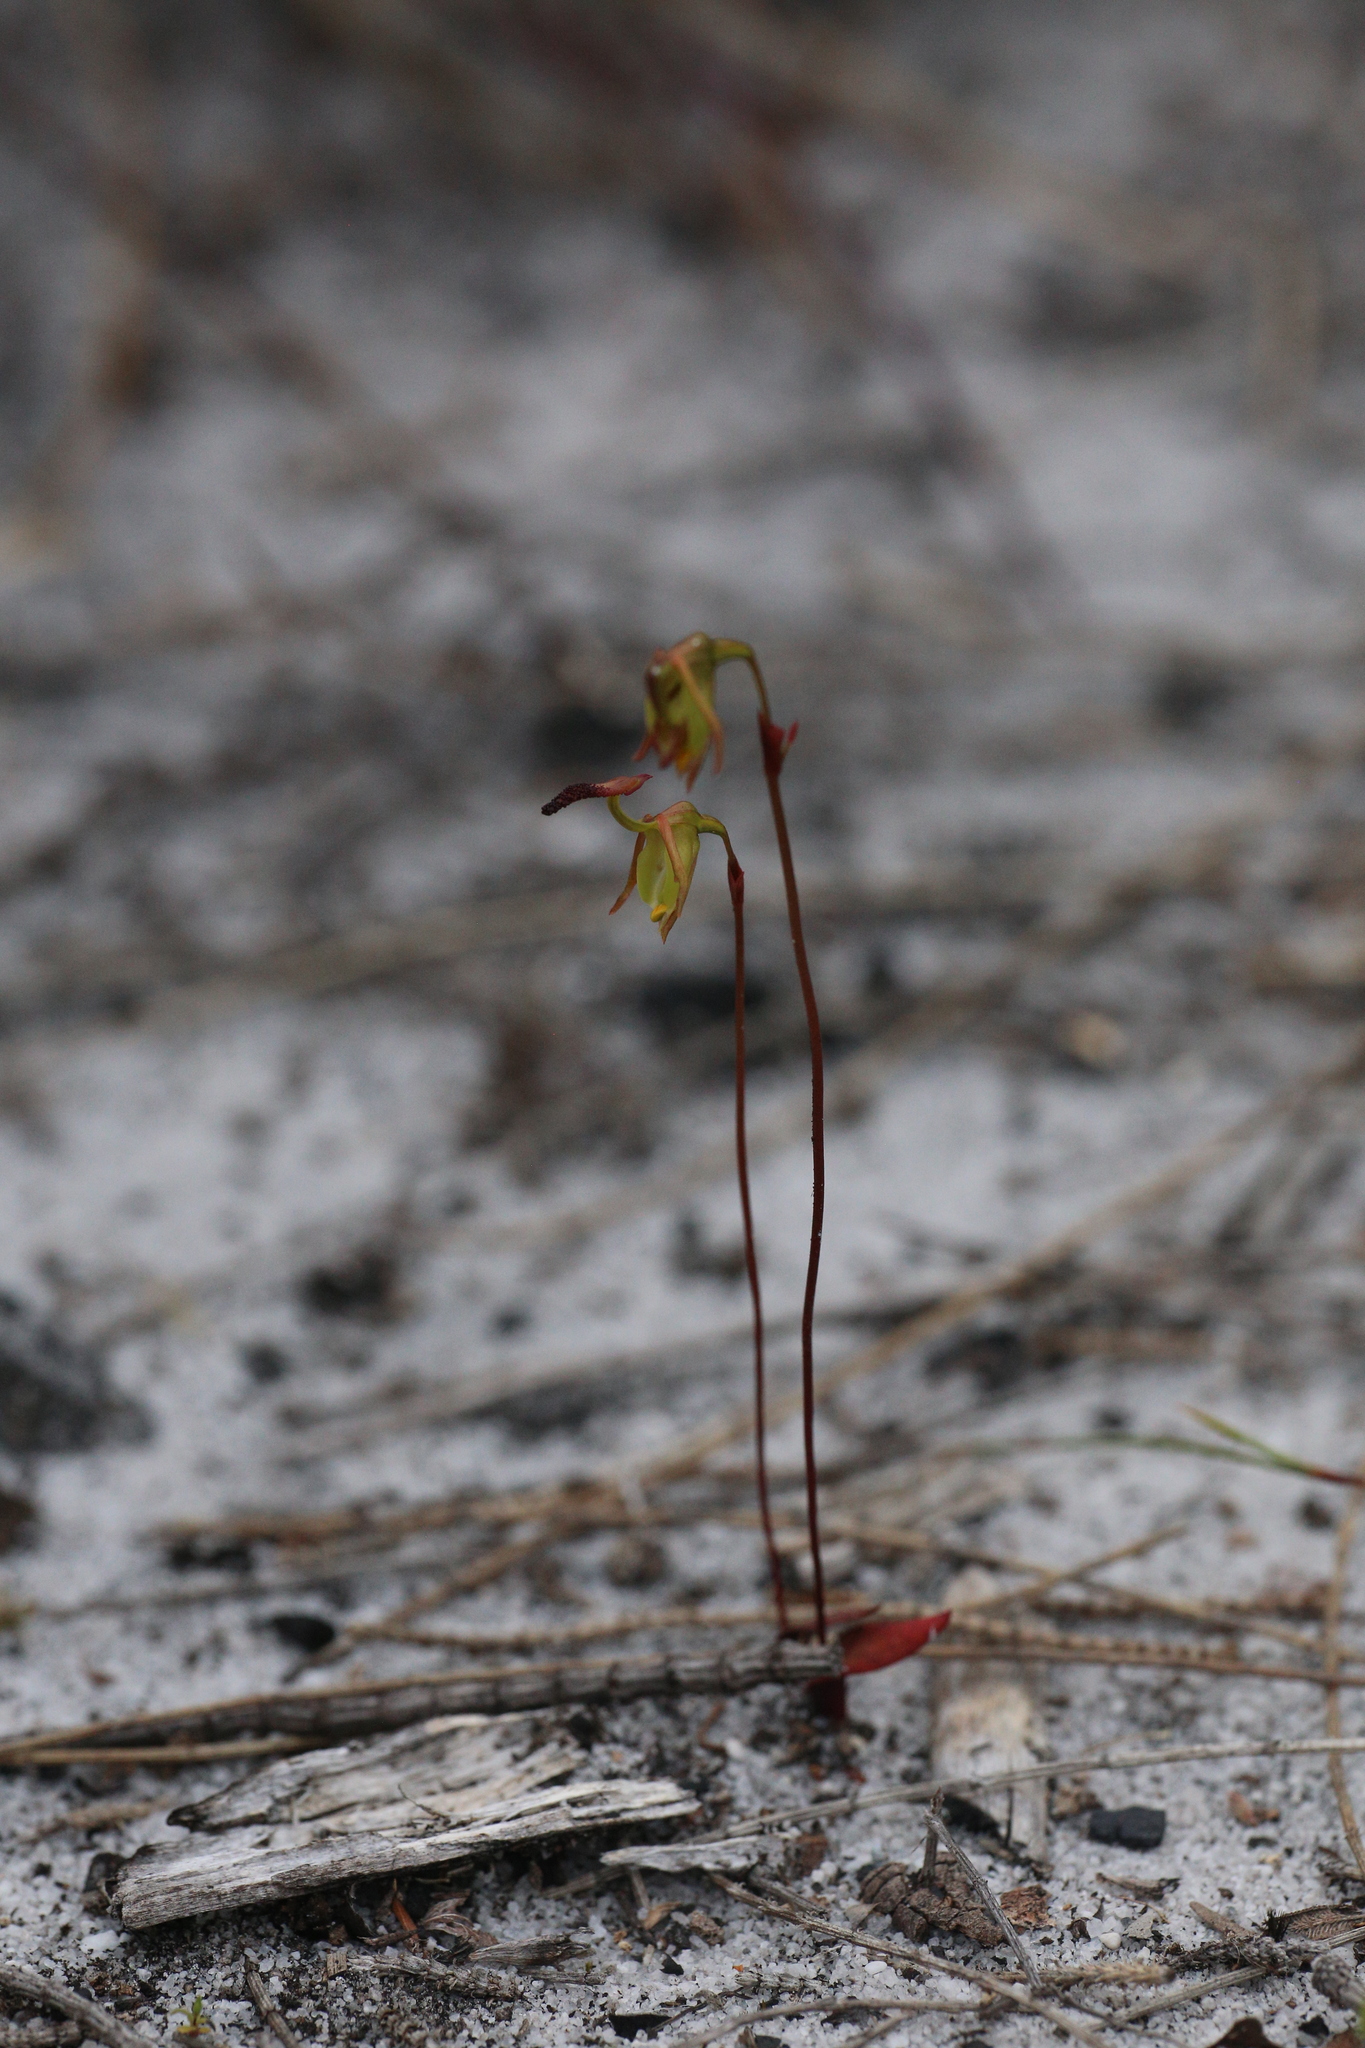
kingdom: Plantae
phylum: Tracheophyta
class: Liliopsida
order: Asparagales
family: Orchidaceae
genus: Caleana
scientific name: Caleana nigrita
